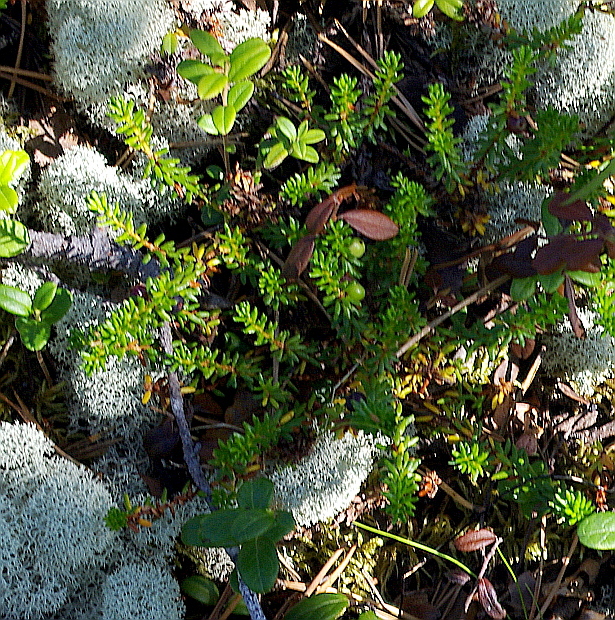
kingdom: Plantae
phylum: Tracheophyta
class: Magnoliopsida
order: Ericales
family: Ericaceae
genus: Empetrum
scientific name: Empetrum nigrum
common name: Black crowberry
